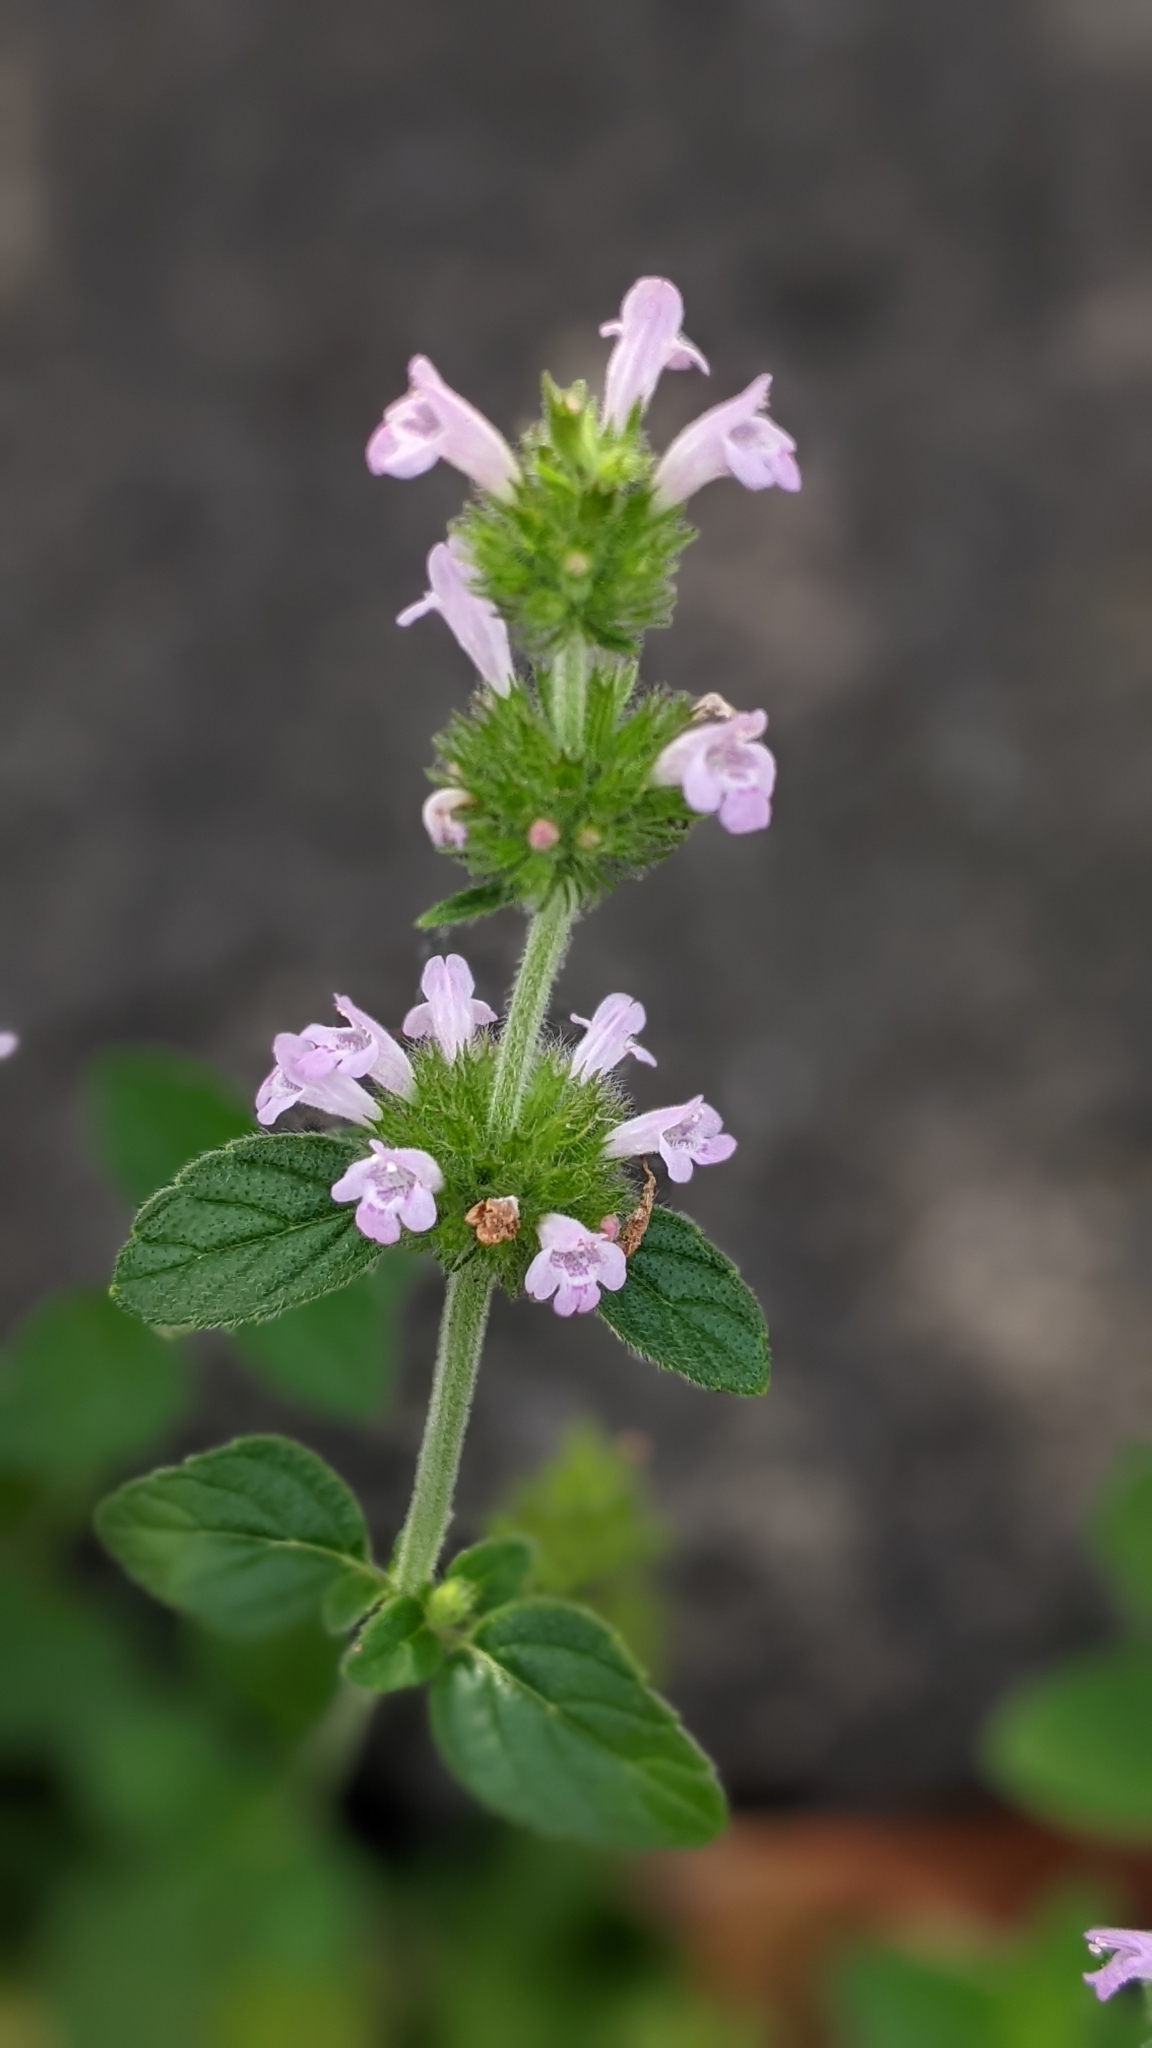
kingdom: Plantae
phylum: Tracheophyta
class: Magnoliopsida
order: Lamiales
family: Lamiaceae
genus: Clinopodium
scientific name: Clinopodium chinense
